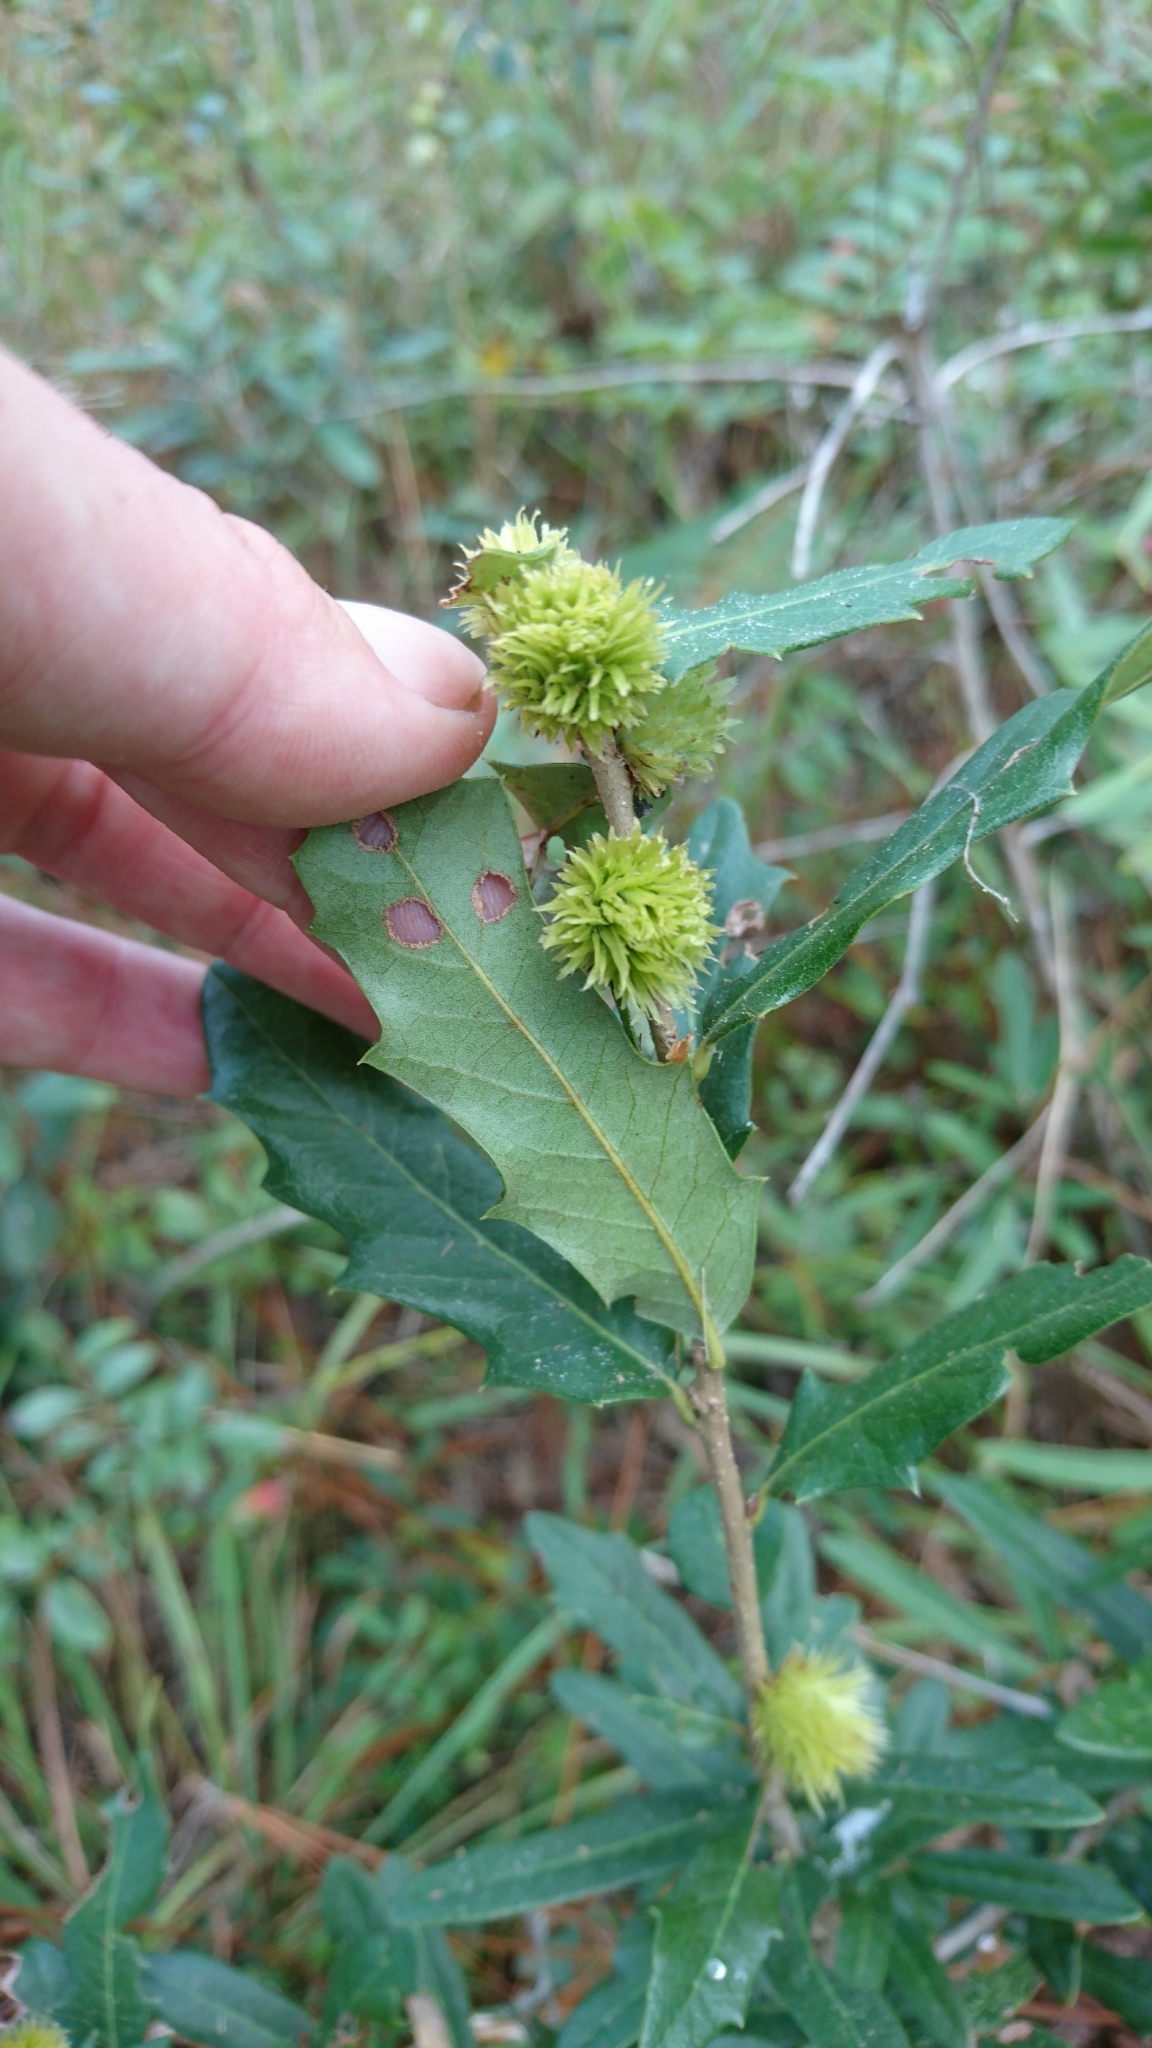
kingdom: Animalia
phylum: Arthropoda
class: Insecta
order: Hymenoptera
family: Cynipidae
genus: Andricus
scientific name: Andricus quercusfoliatus
